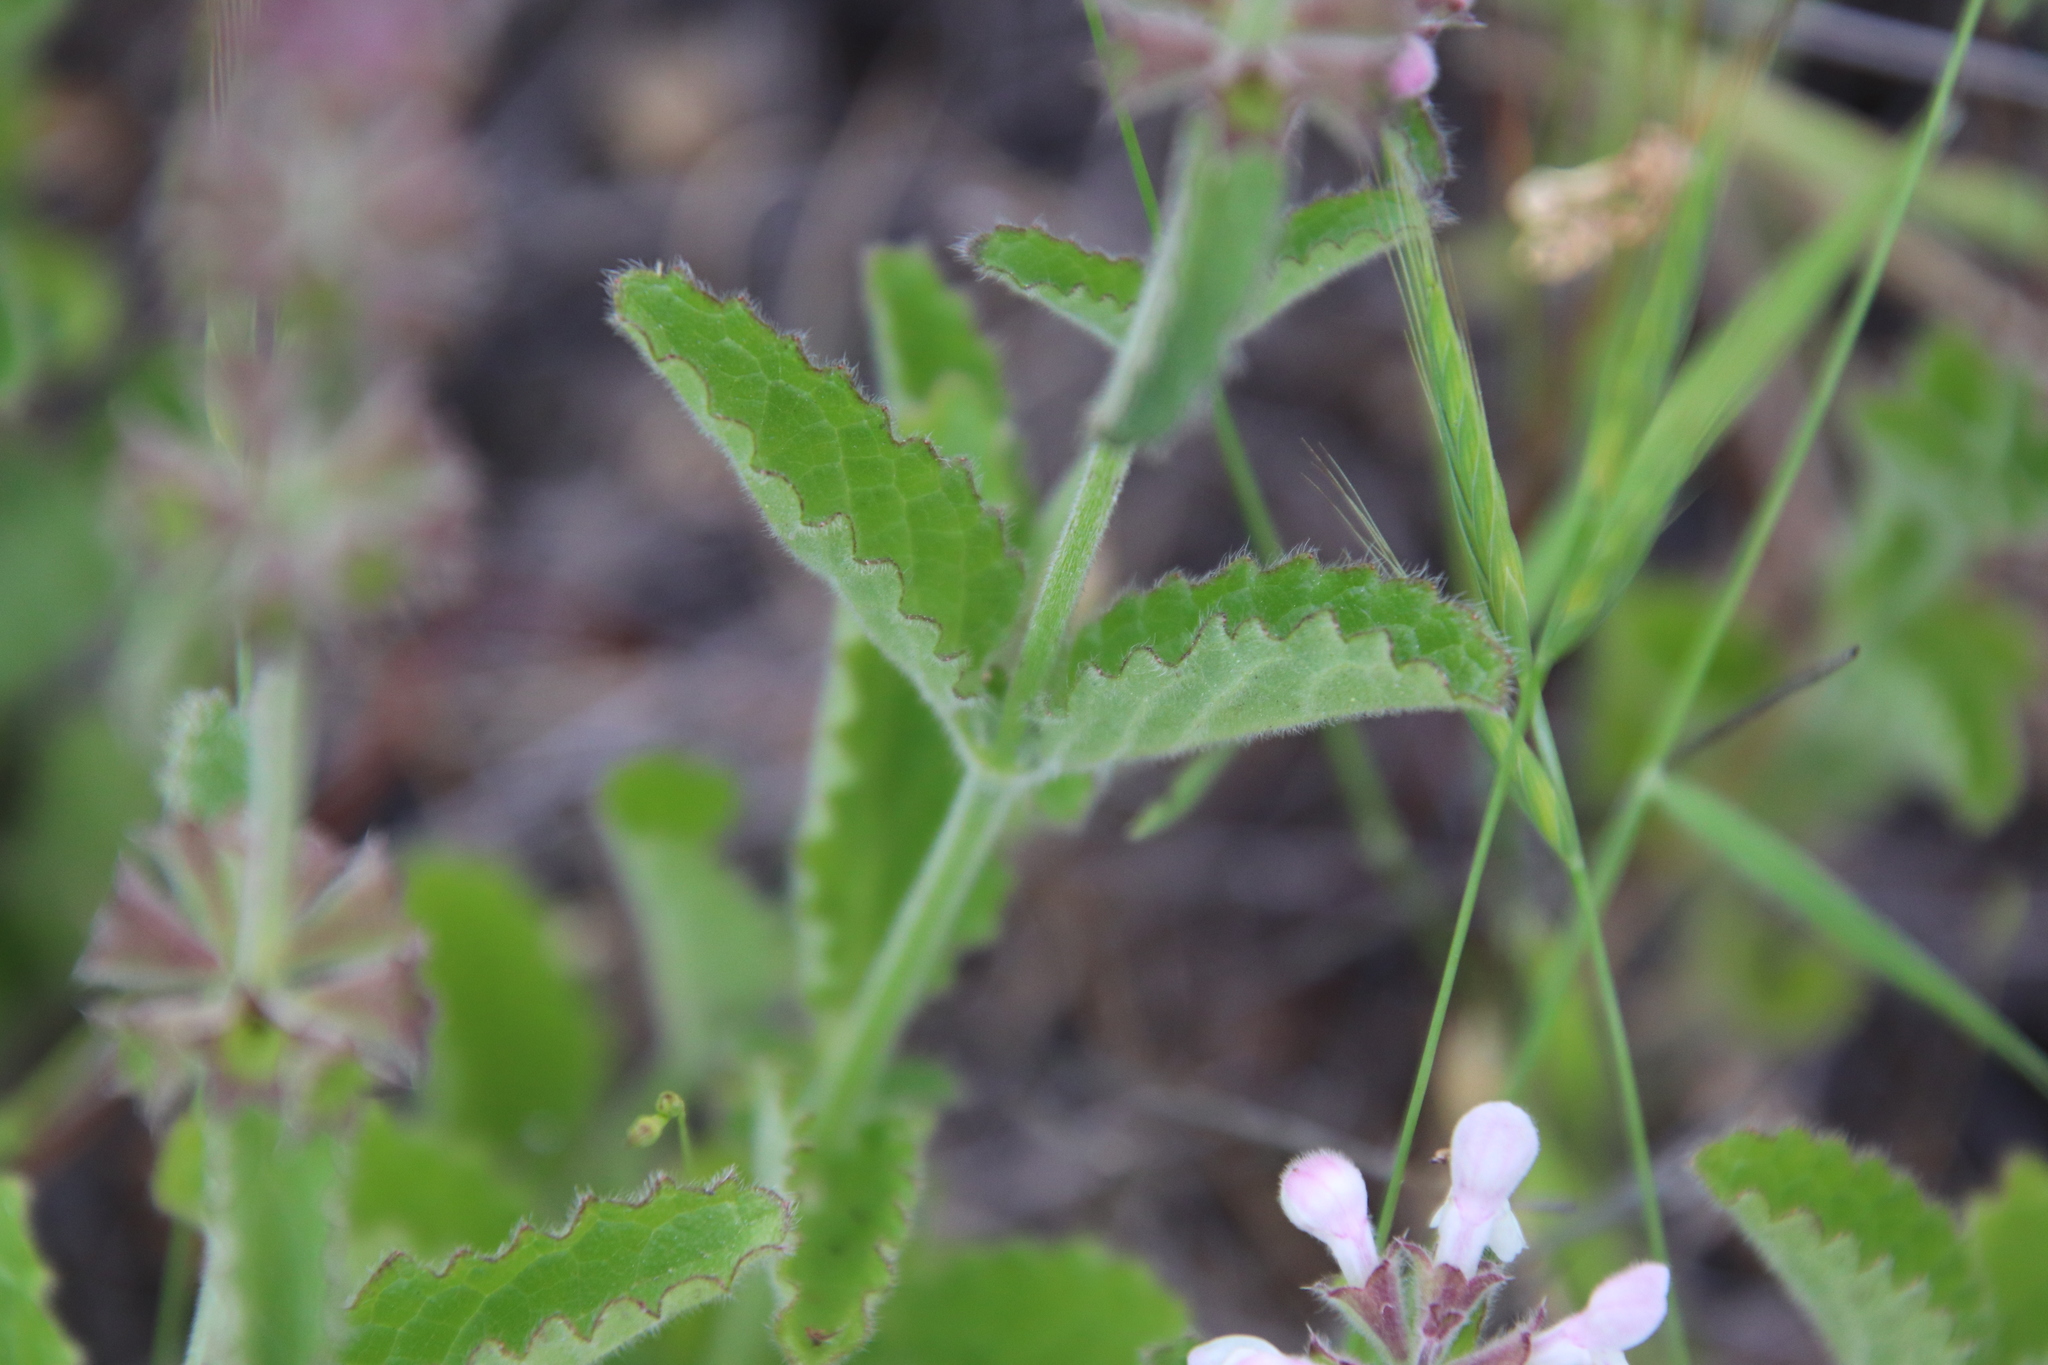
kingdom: Plantae
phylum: Tracheophyta
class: Magnoliopsida
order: Lamiales
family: Lamiaceae
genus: Stachys
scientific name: Stachys rigida
